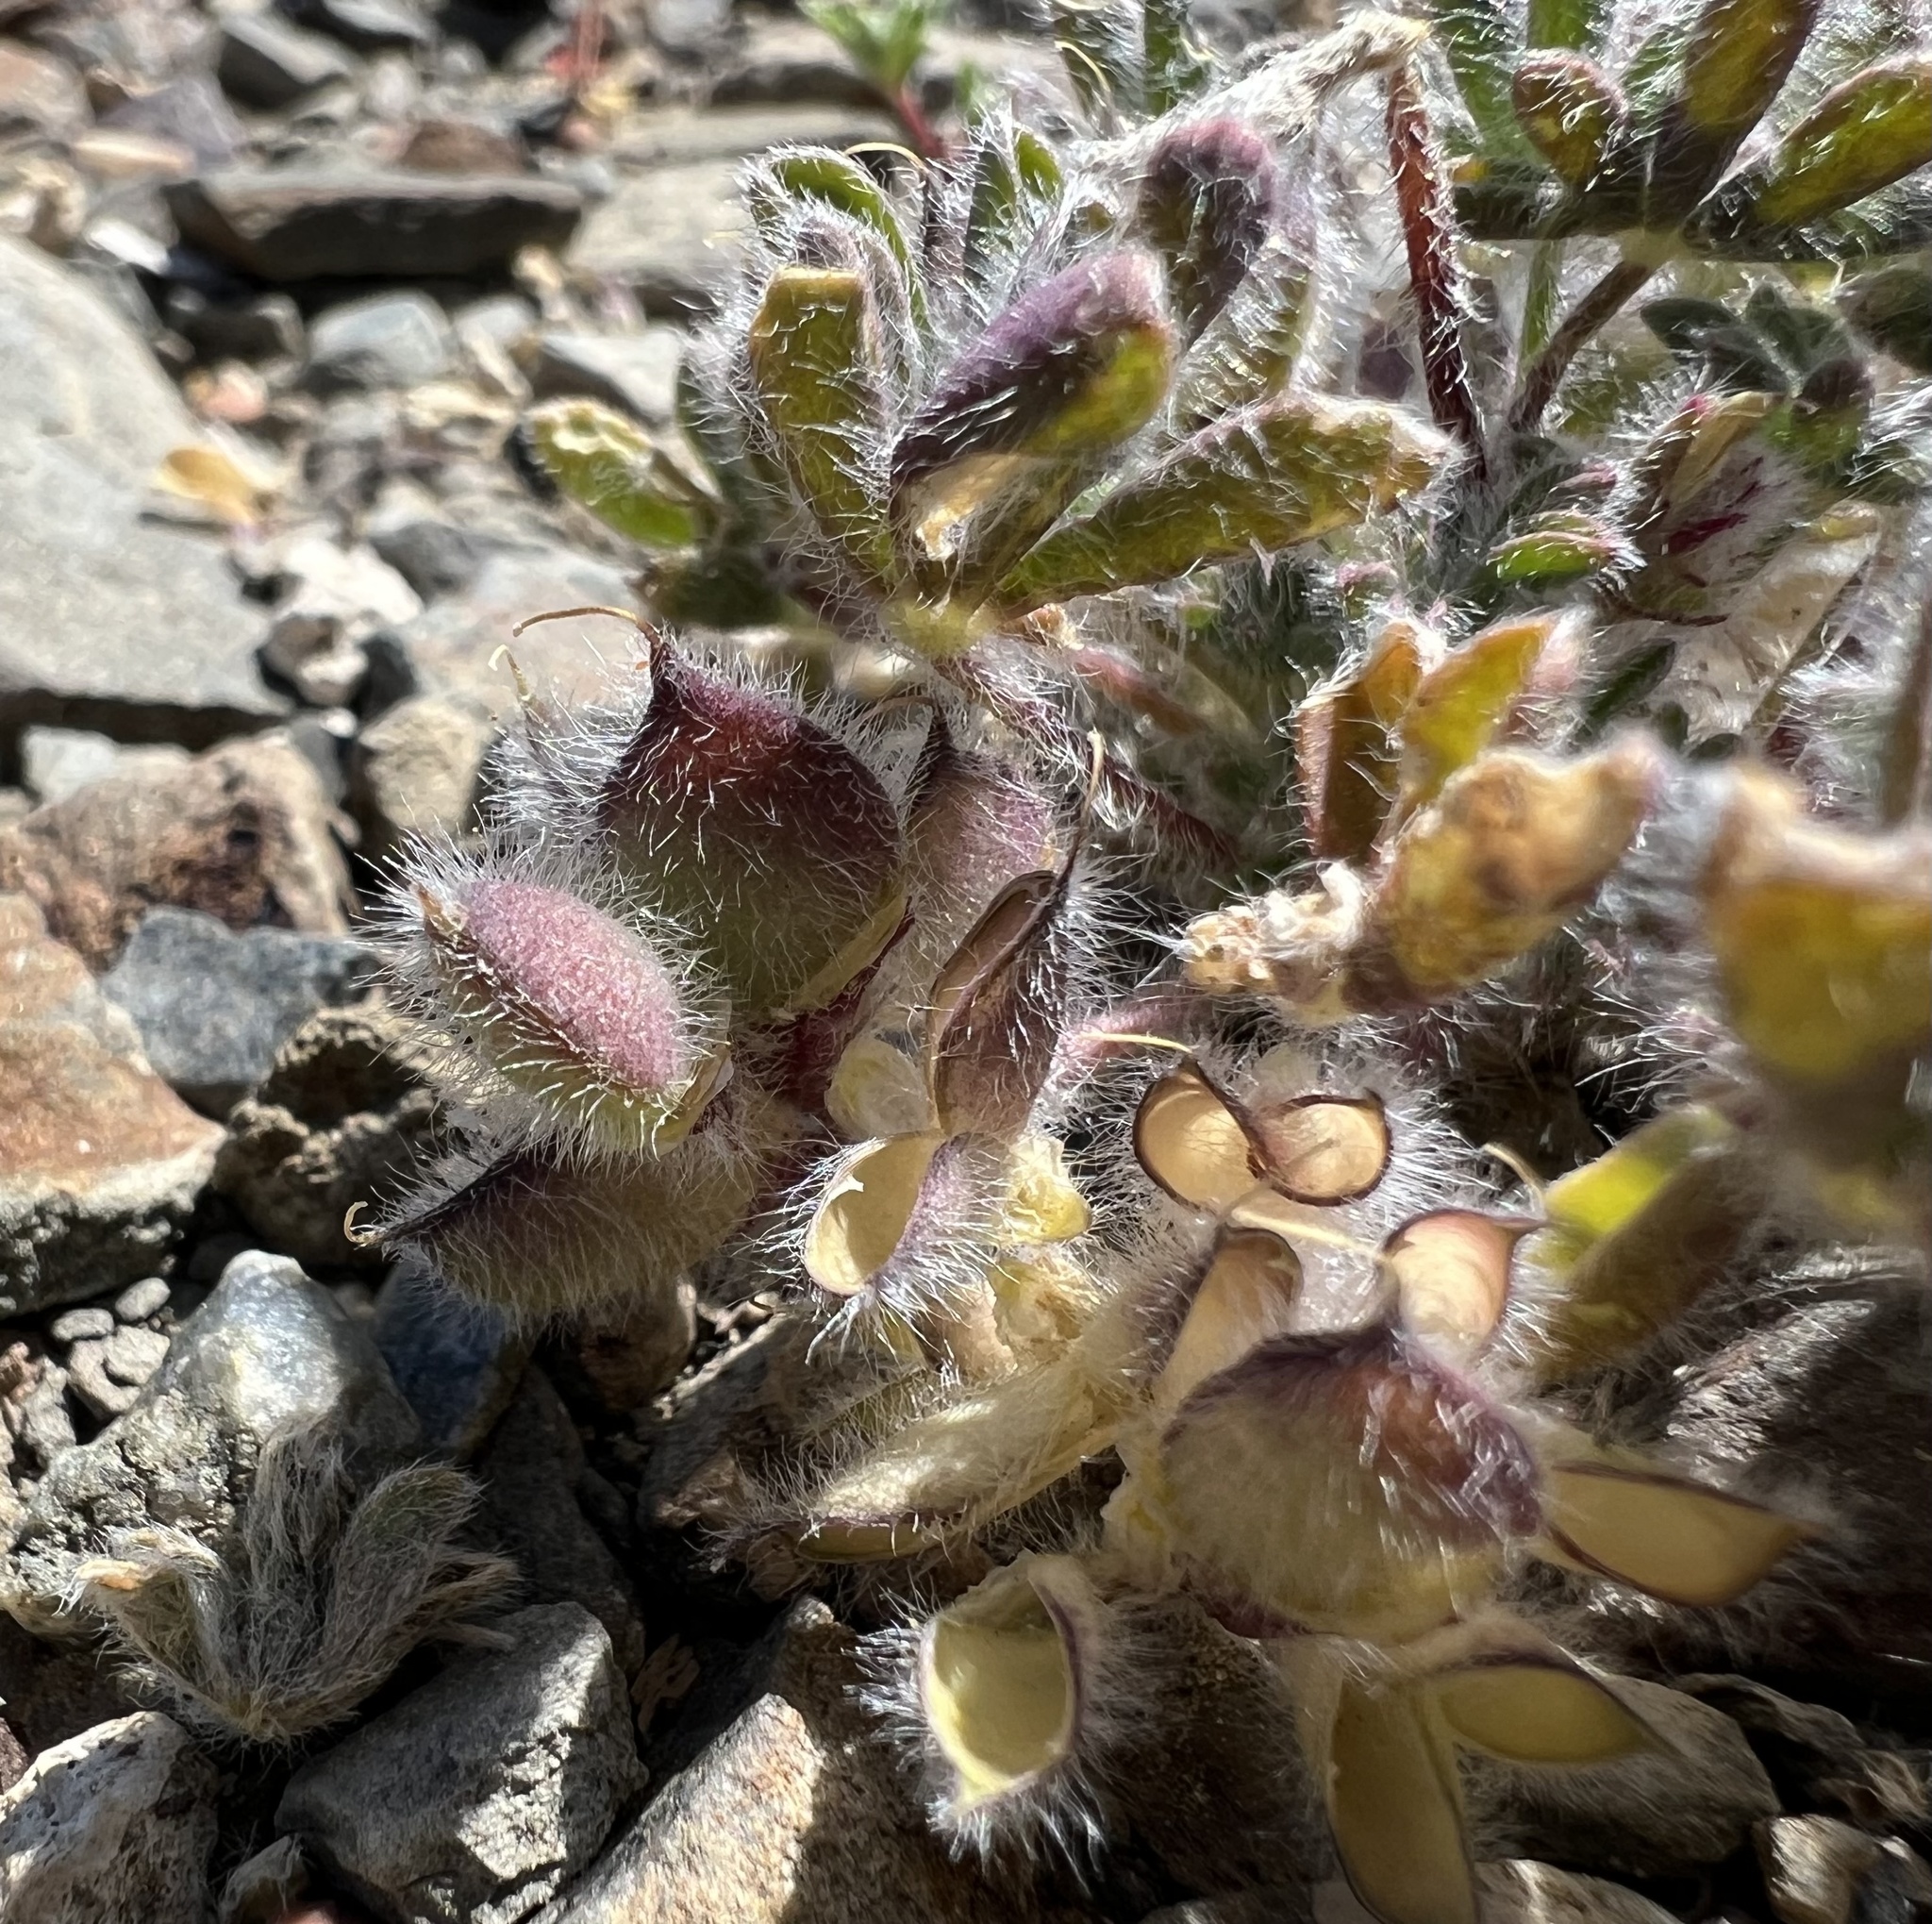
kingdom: Plantae
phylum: Tracheophyta
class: Magnoliopsida
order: Fabales
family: Fabaceae
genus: Lupinus
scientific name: Lupinus brevicaulis
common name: Sand lupine
